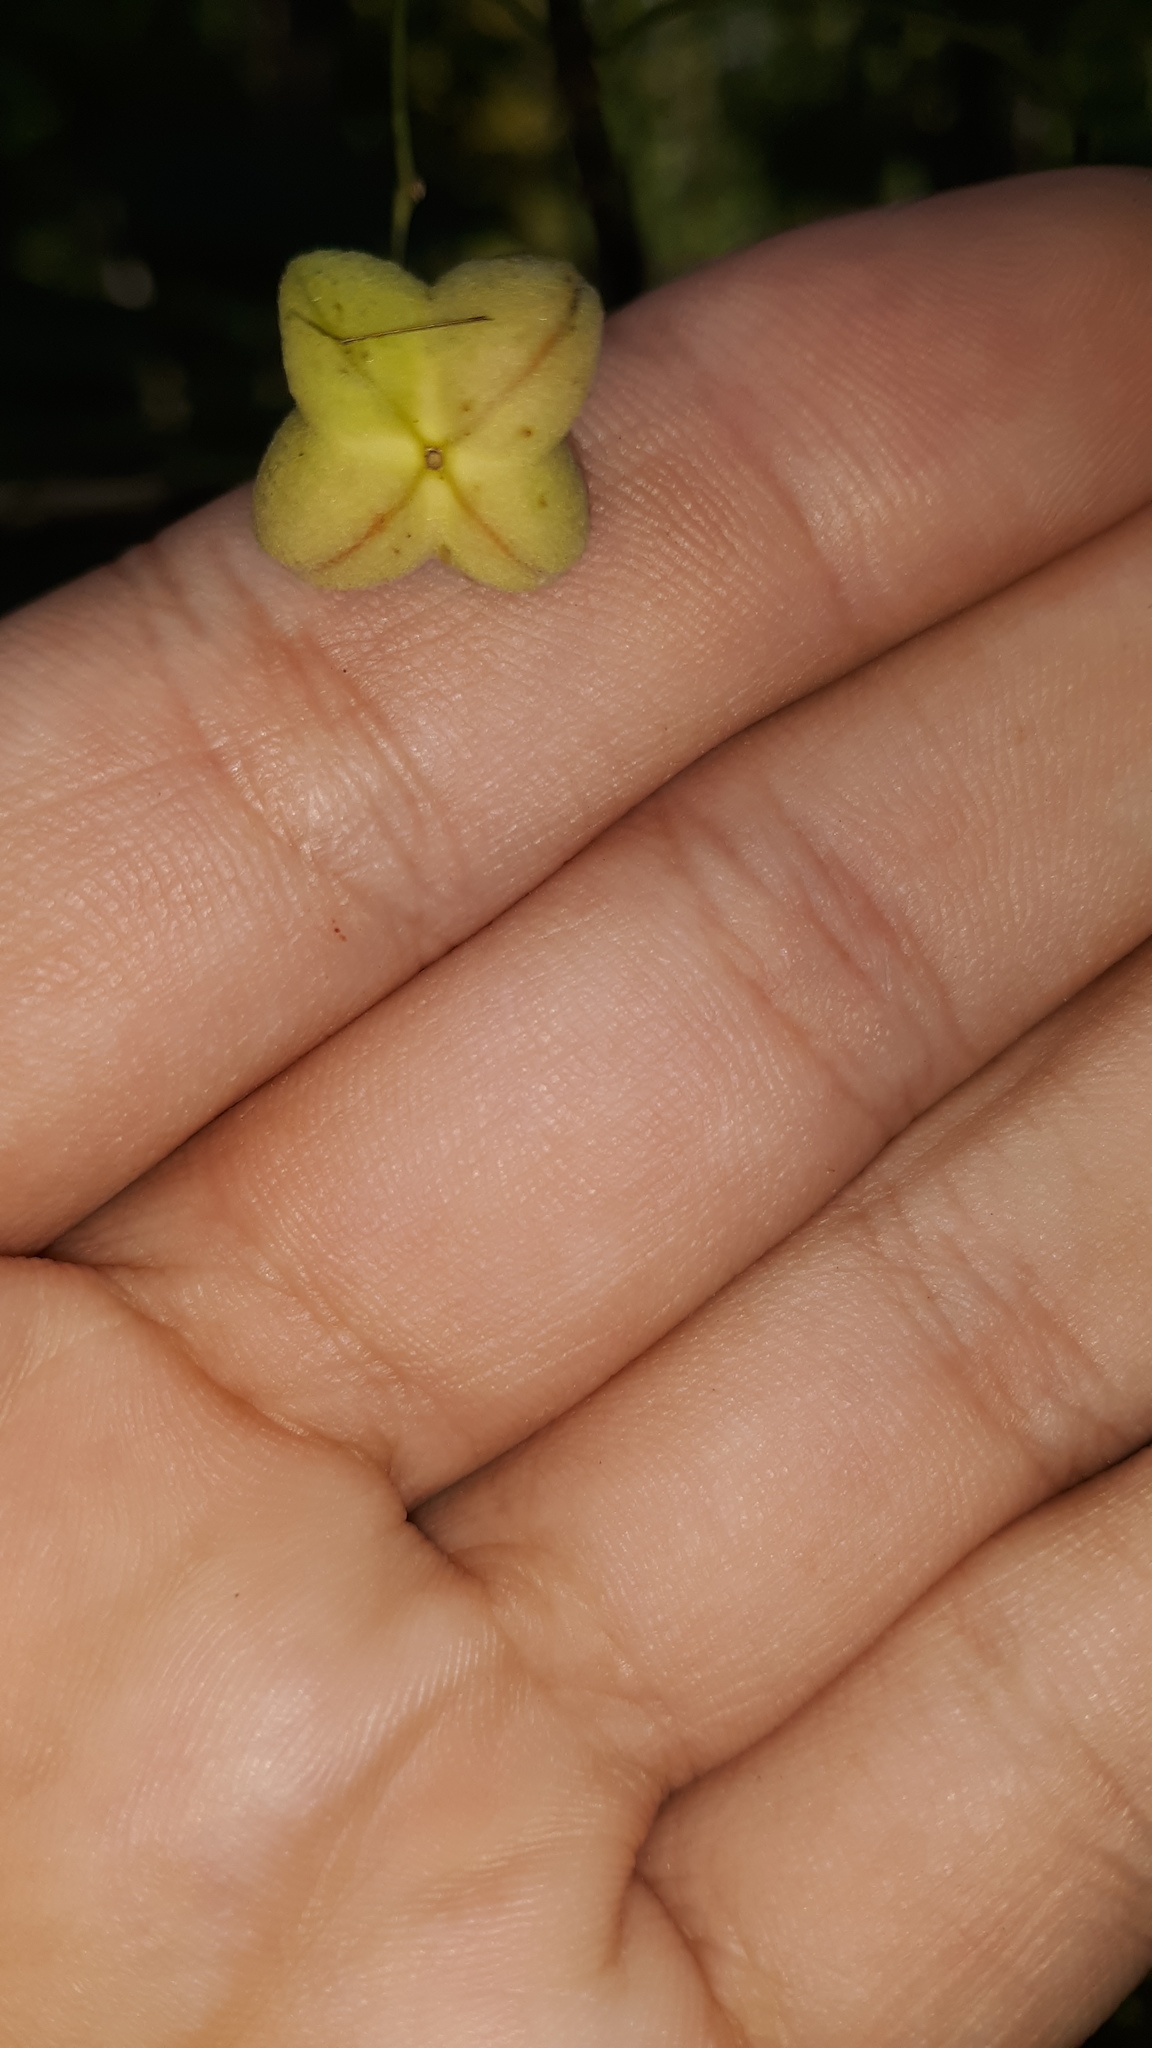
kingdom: Plantae
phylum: Tracheophyta
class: Magnoliopsida
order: Celastrales
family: Celastraceae
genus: Euonymus
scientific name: Euonymus atropurpureus
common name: Eastern wahoo
